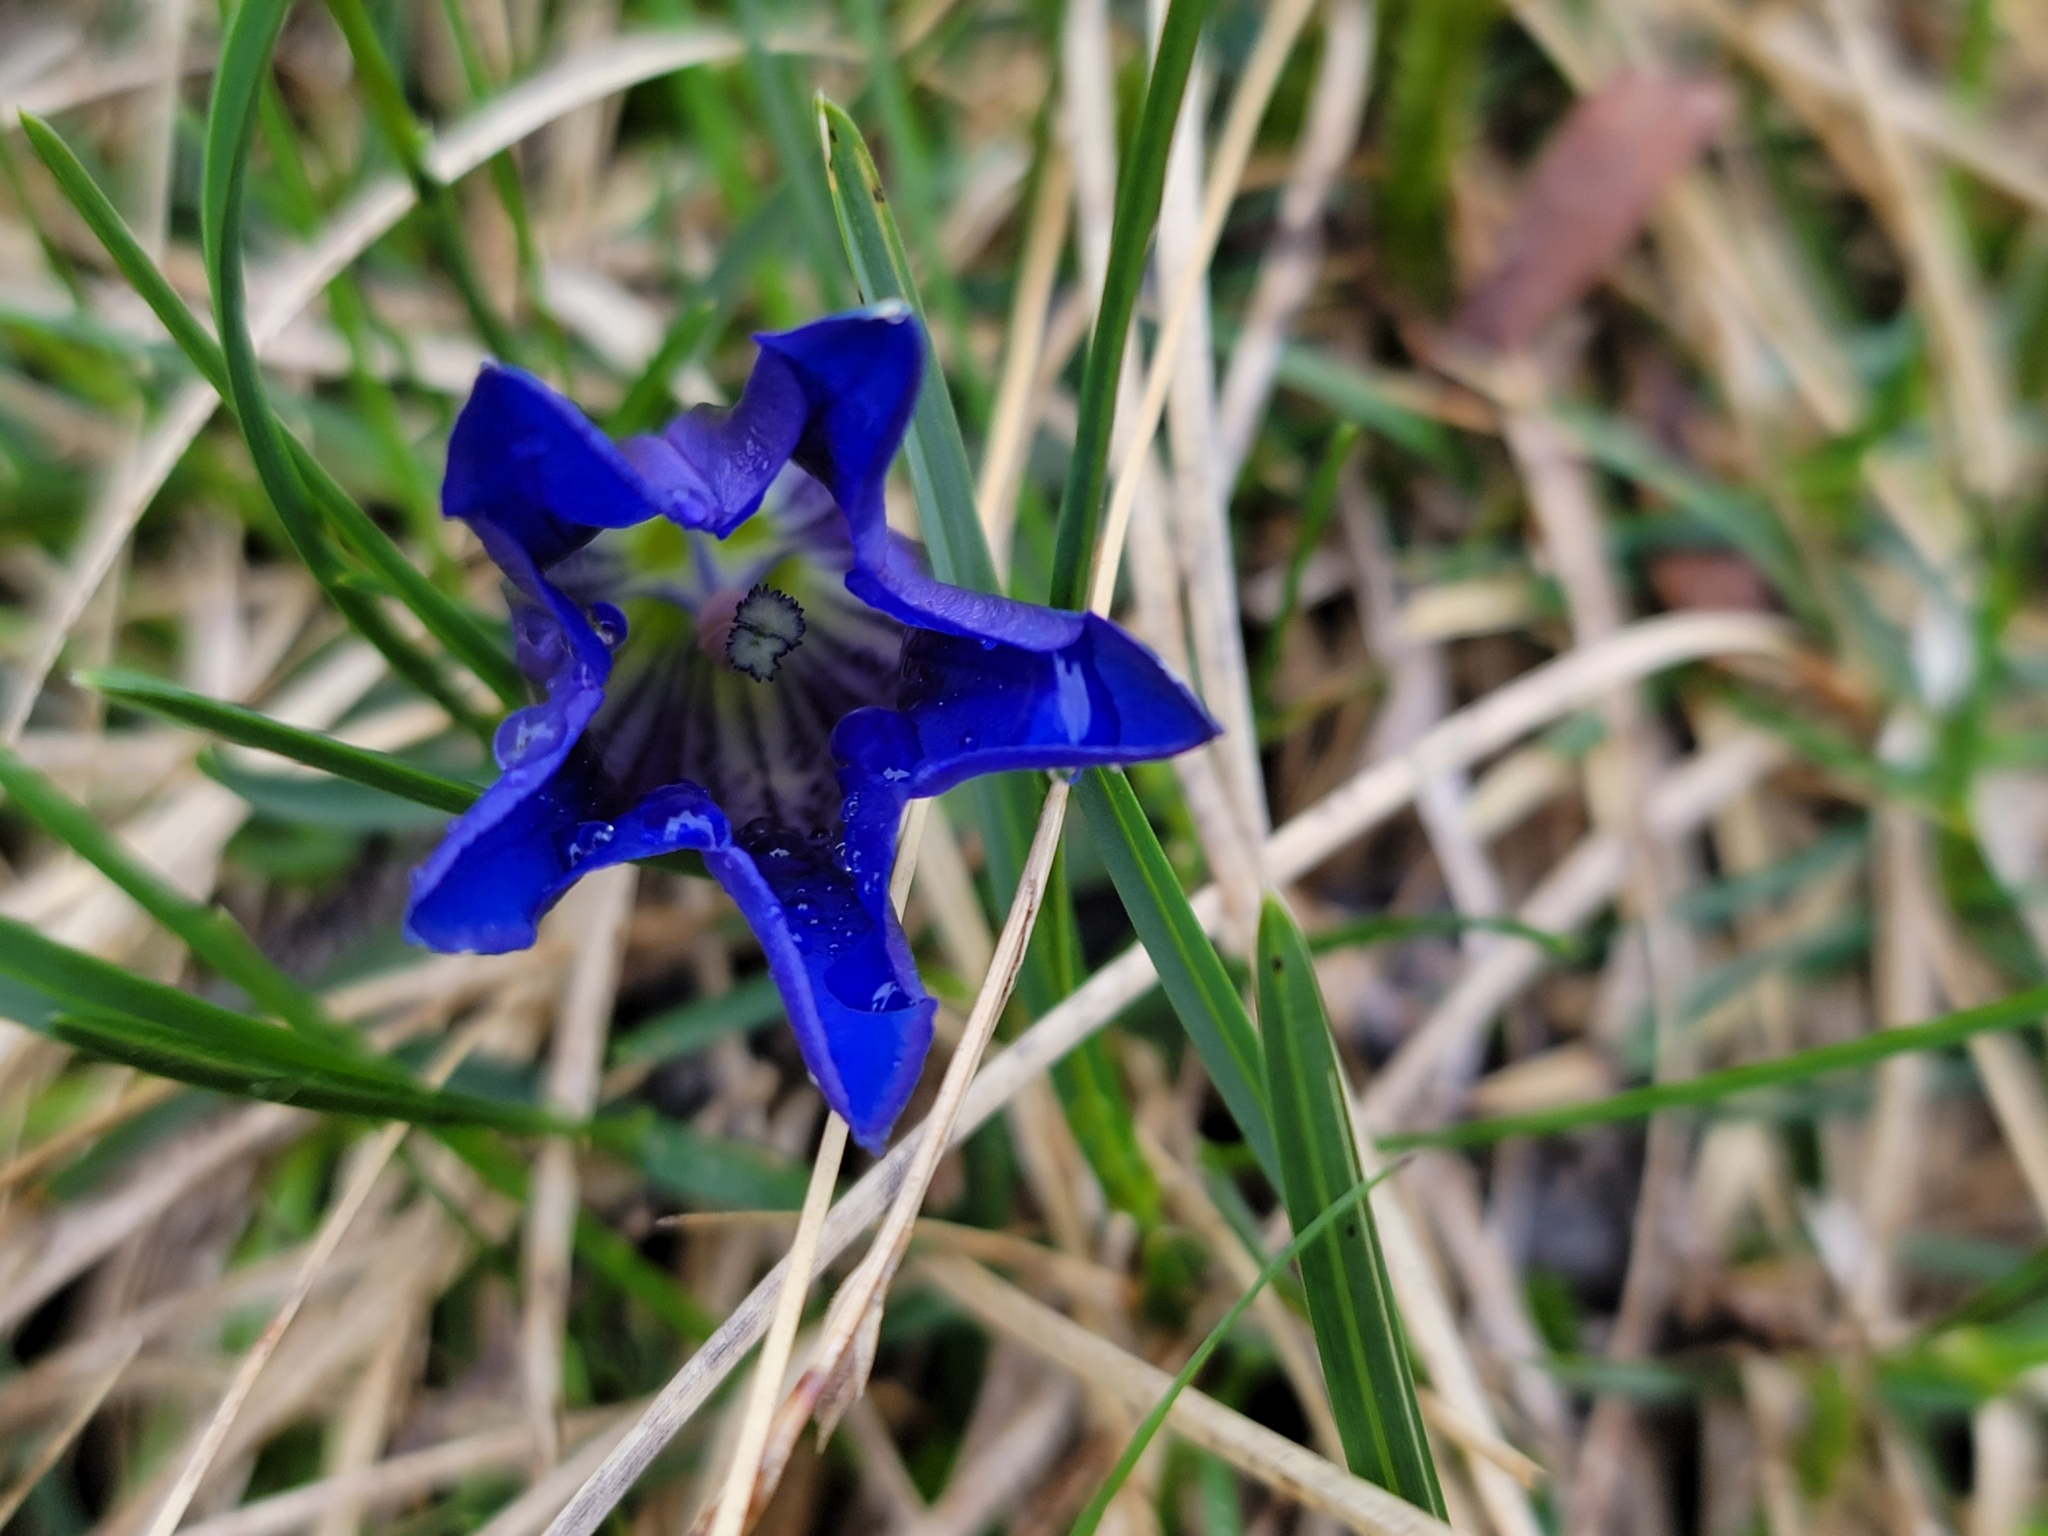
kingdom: Plantae
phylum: Tracheophyta
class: Magnoliopsida
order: Gentianales
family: Gentianaceae
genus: Gentiana
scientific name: Gentiana clusii
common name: Trumpet gentian
